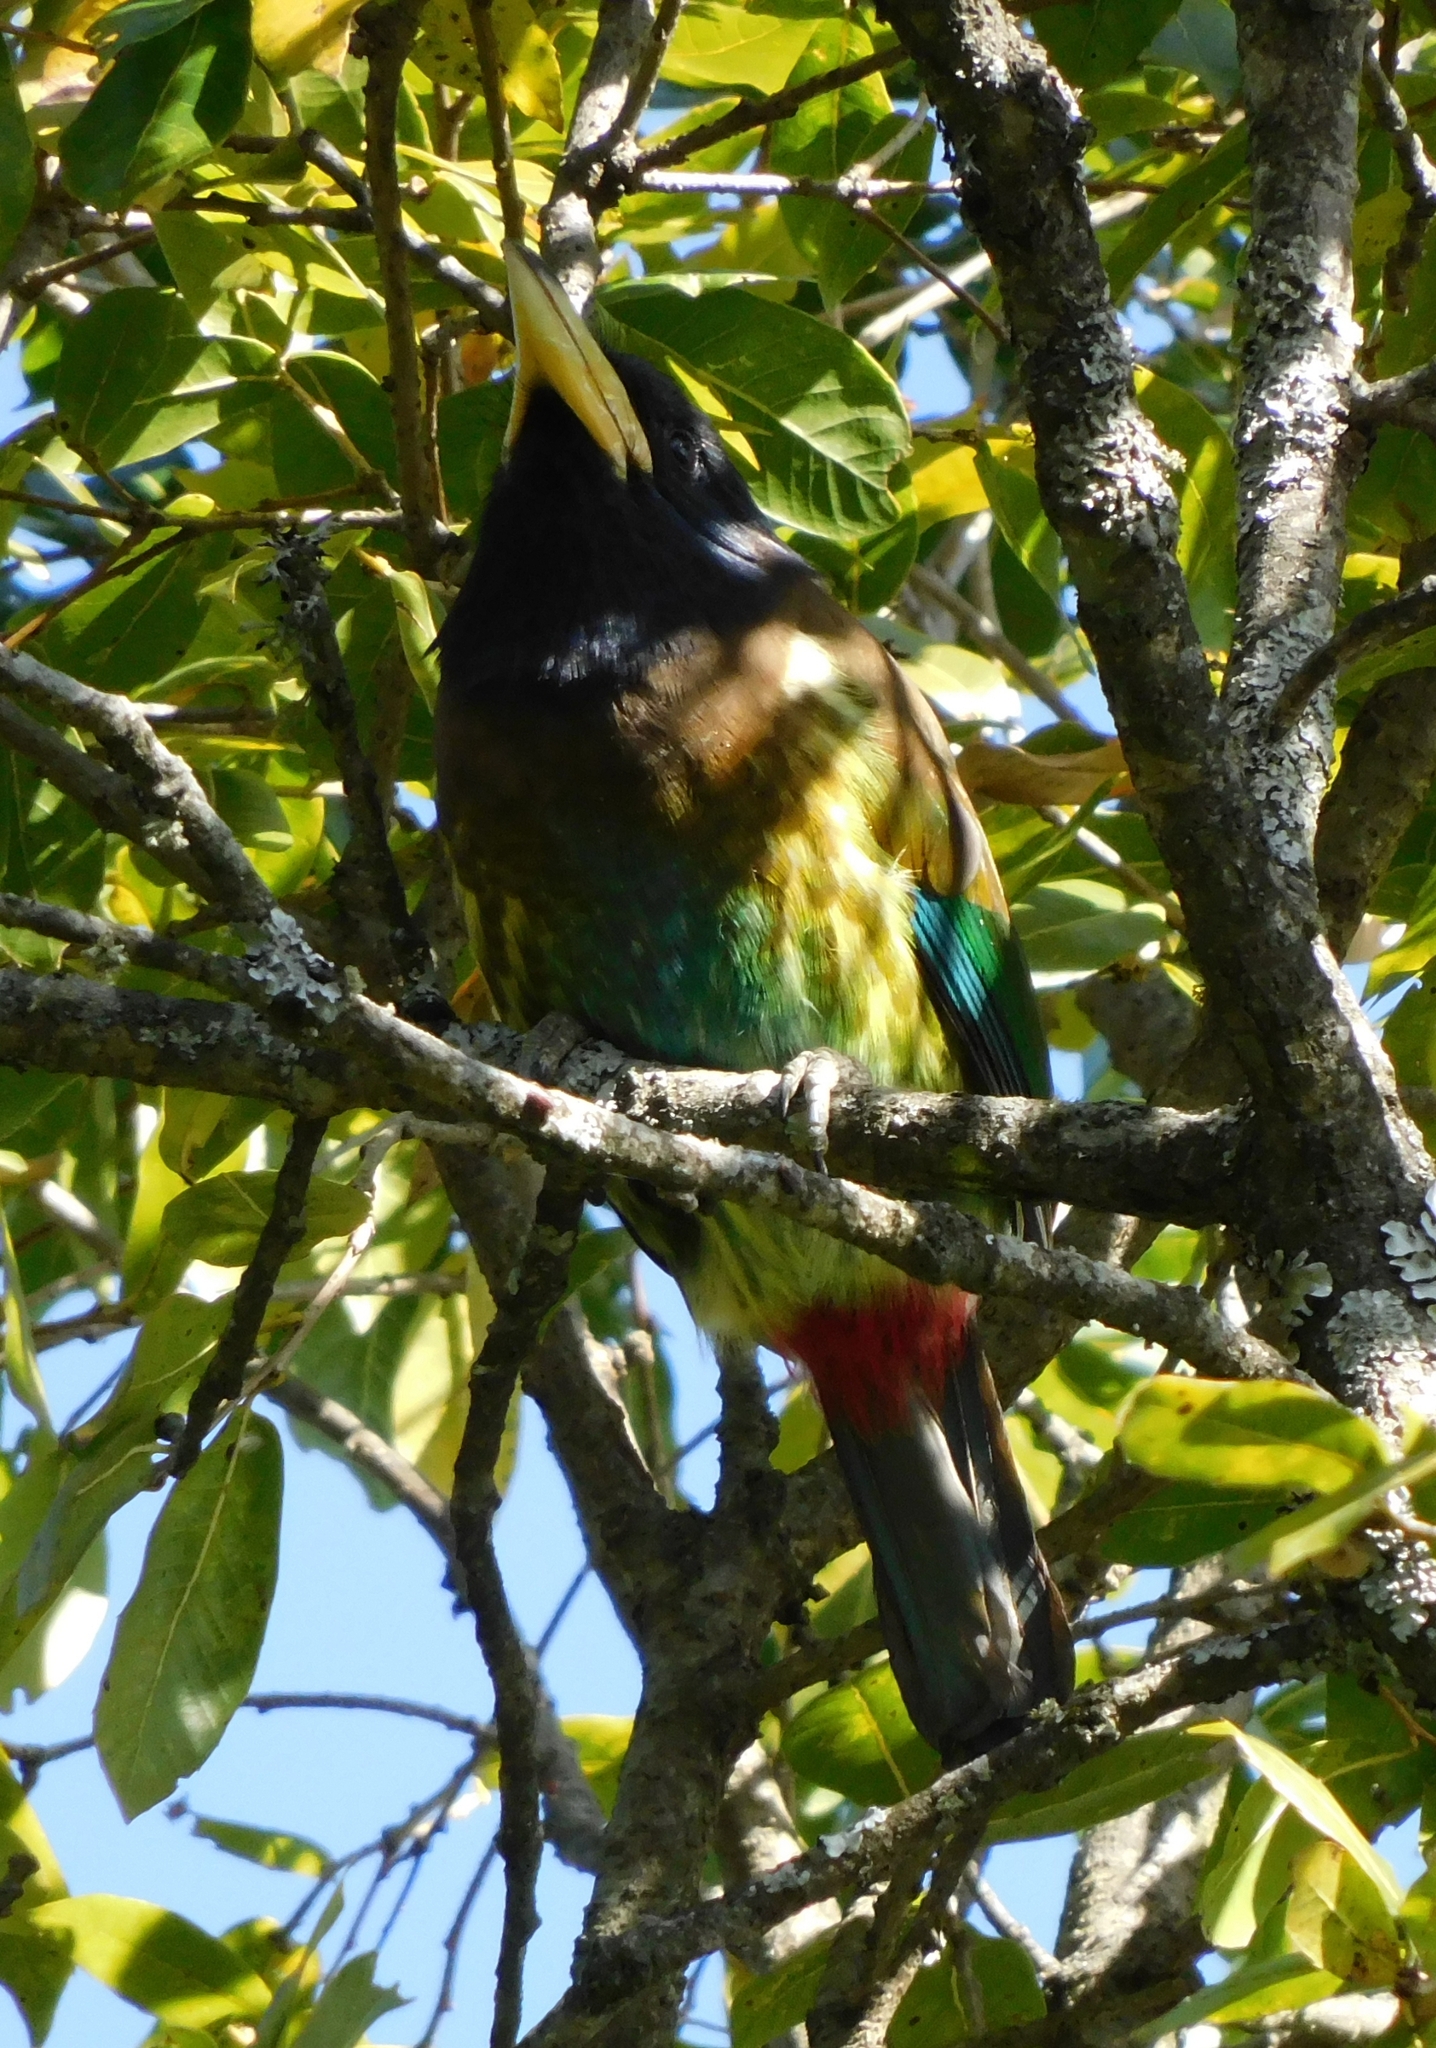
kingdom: Animalia
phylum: Chordata
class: Aves
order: Piciformes
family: Megalaimidae
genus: Psilopogon
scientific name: Psilopogon virens
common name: Great barbet
